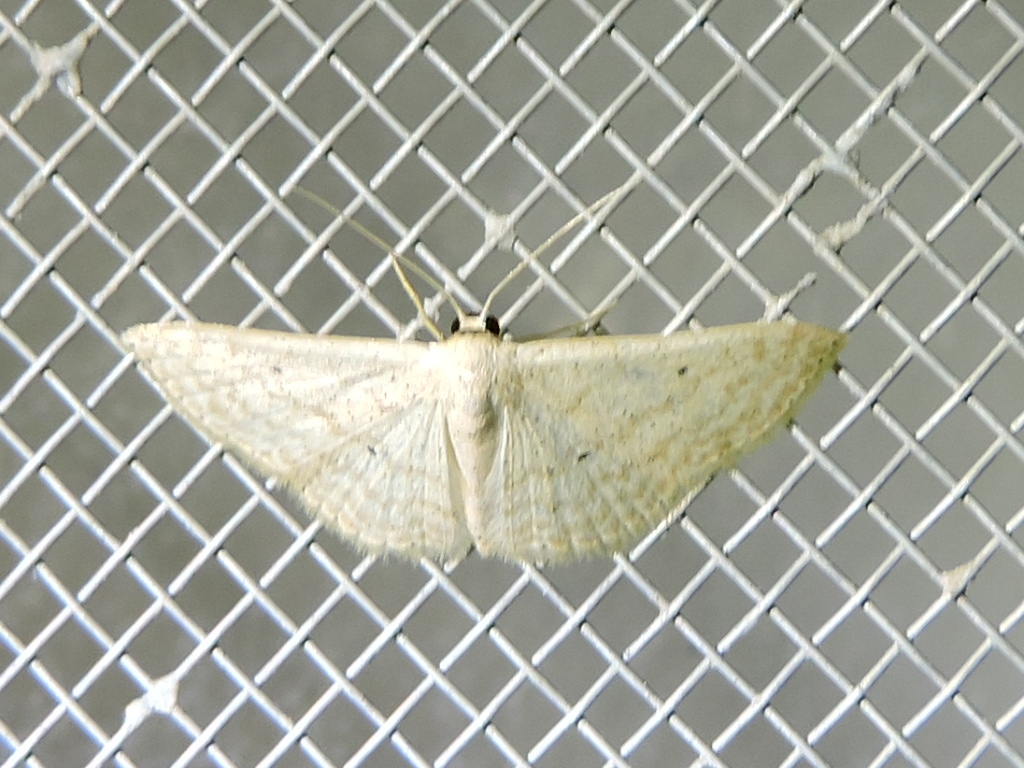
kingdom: Animalia
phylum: Arthropoda
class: Insecta
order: Lepidoptera
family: Geometridae
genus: Scopula
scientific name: Scopula umbilicata
